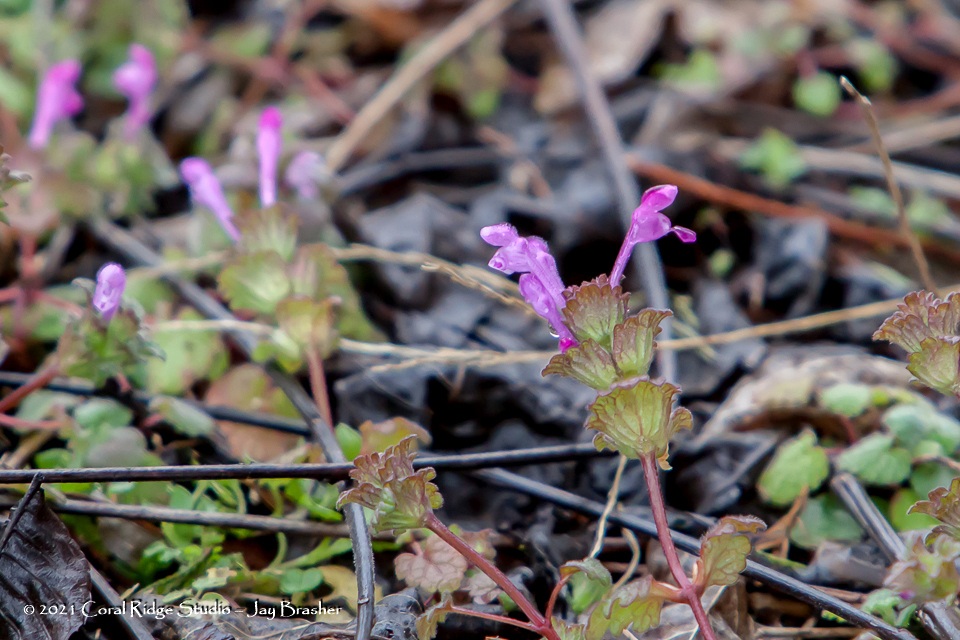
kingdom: Plantae
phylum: Tracheophyta
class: Magnoliopsida
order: Lamiales
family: Lamiaceae
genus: Lamium
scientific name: Lamium amplexicaule
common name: Henbit dead-nettle
